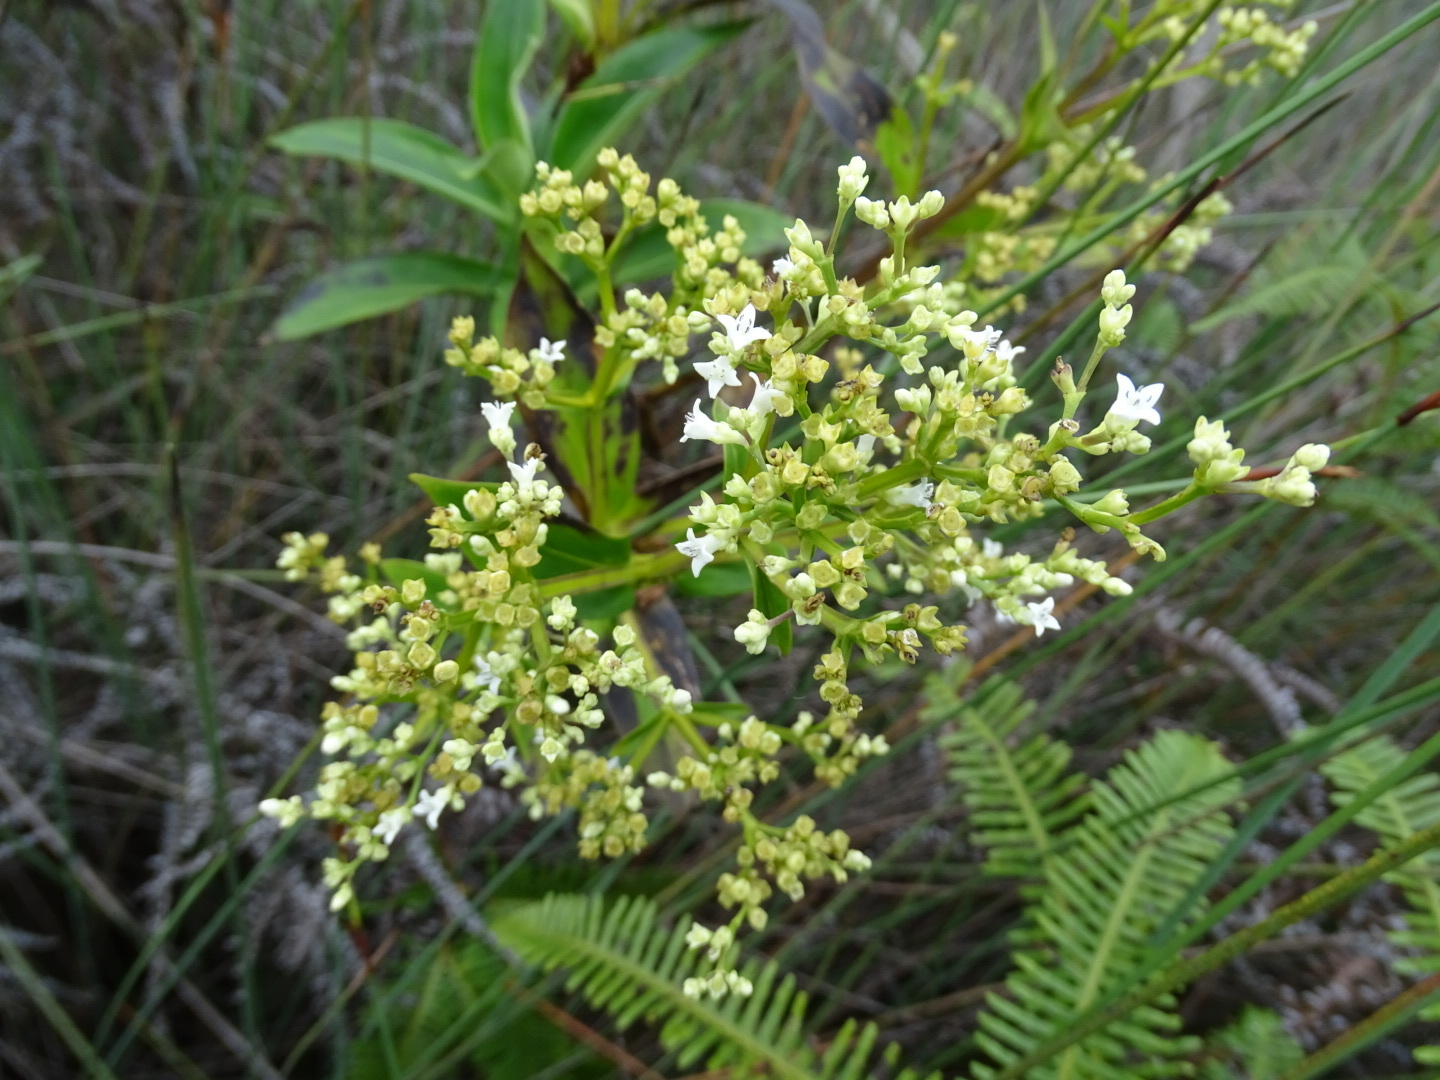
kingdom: Plantae
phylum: Tracheophyta
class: Magnoliopsida
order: Gentianales
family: Rubiaceae
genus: Hedyotis
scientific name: Hedyotis acutangula
